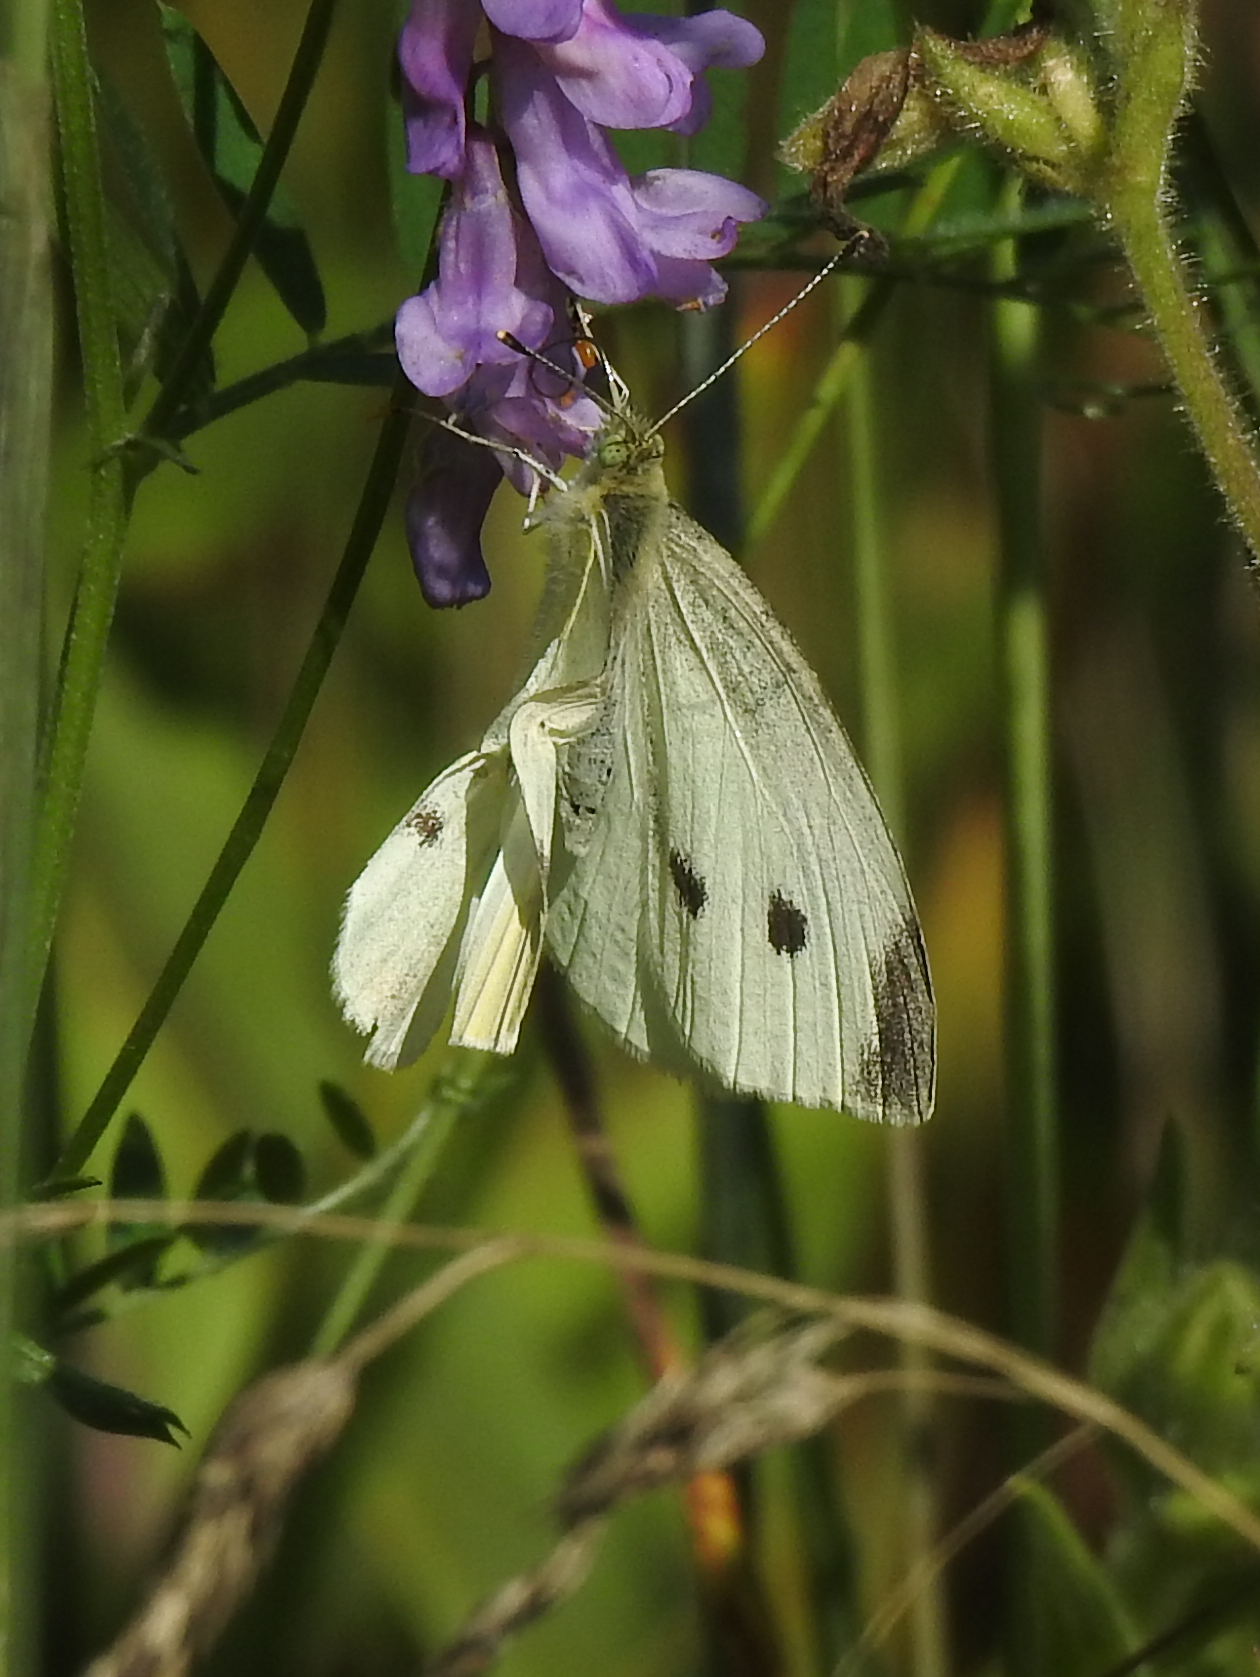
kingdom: Animalia
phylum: Arthropoda
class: Insecta
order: Lepidoptera
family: Pieridae
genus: Pieris
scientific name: Pieris rapae
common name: Small white
